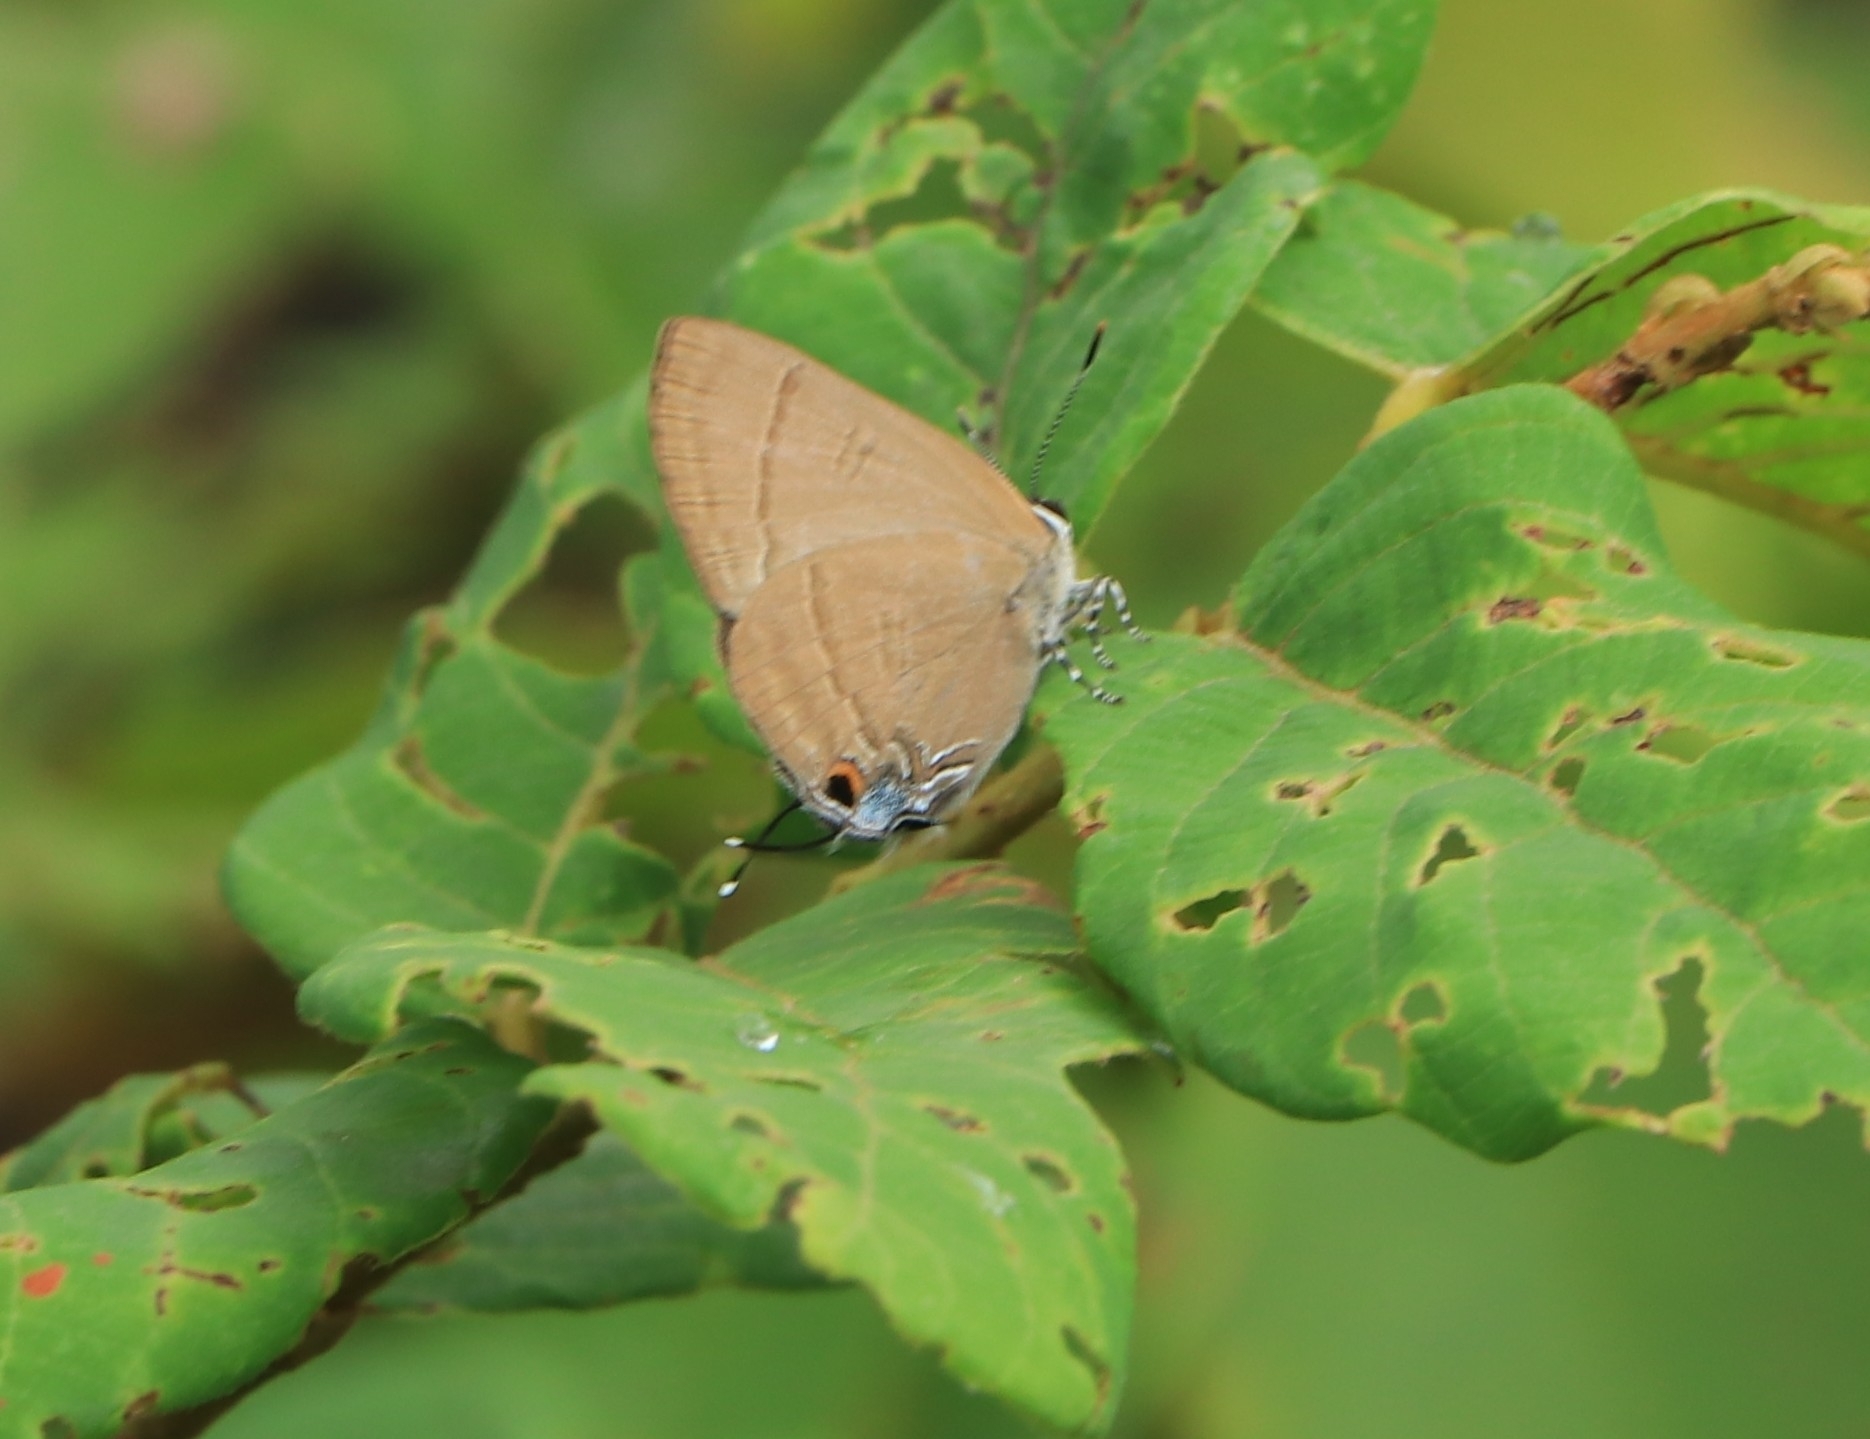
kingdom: Animalia
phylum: Arthropoda
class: Insecta
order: Lepidoptera
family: Lycaenidae
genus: Rapala
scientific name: Rapala manea
